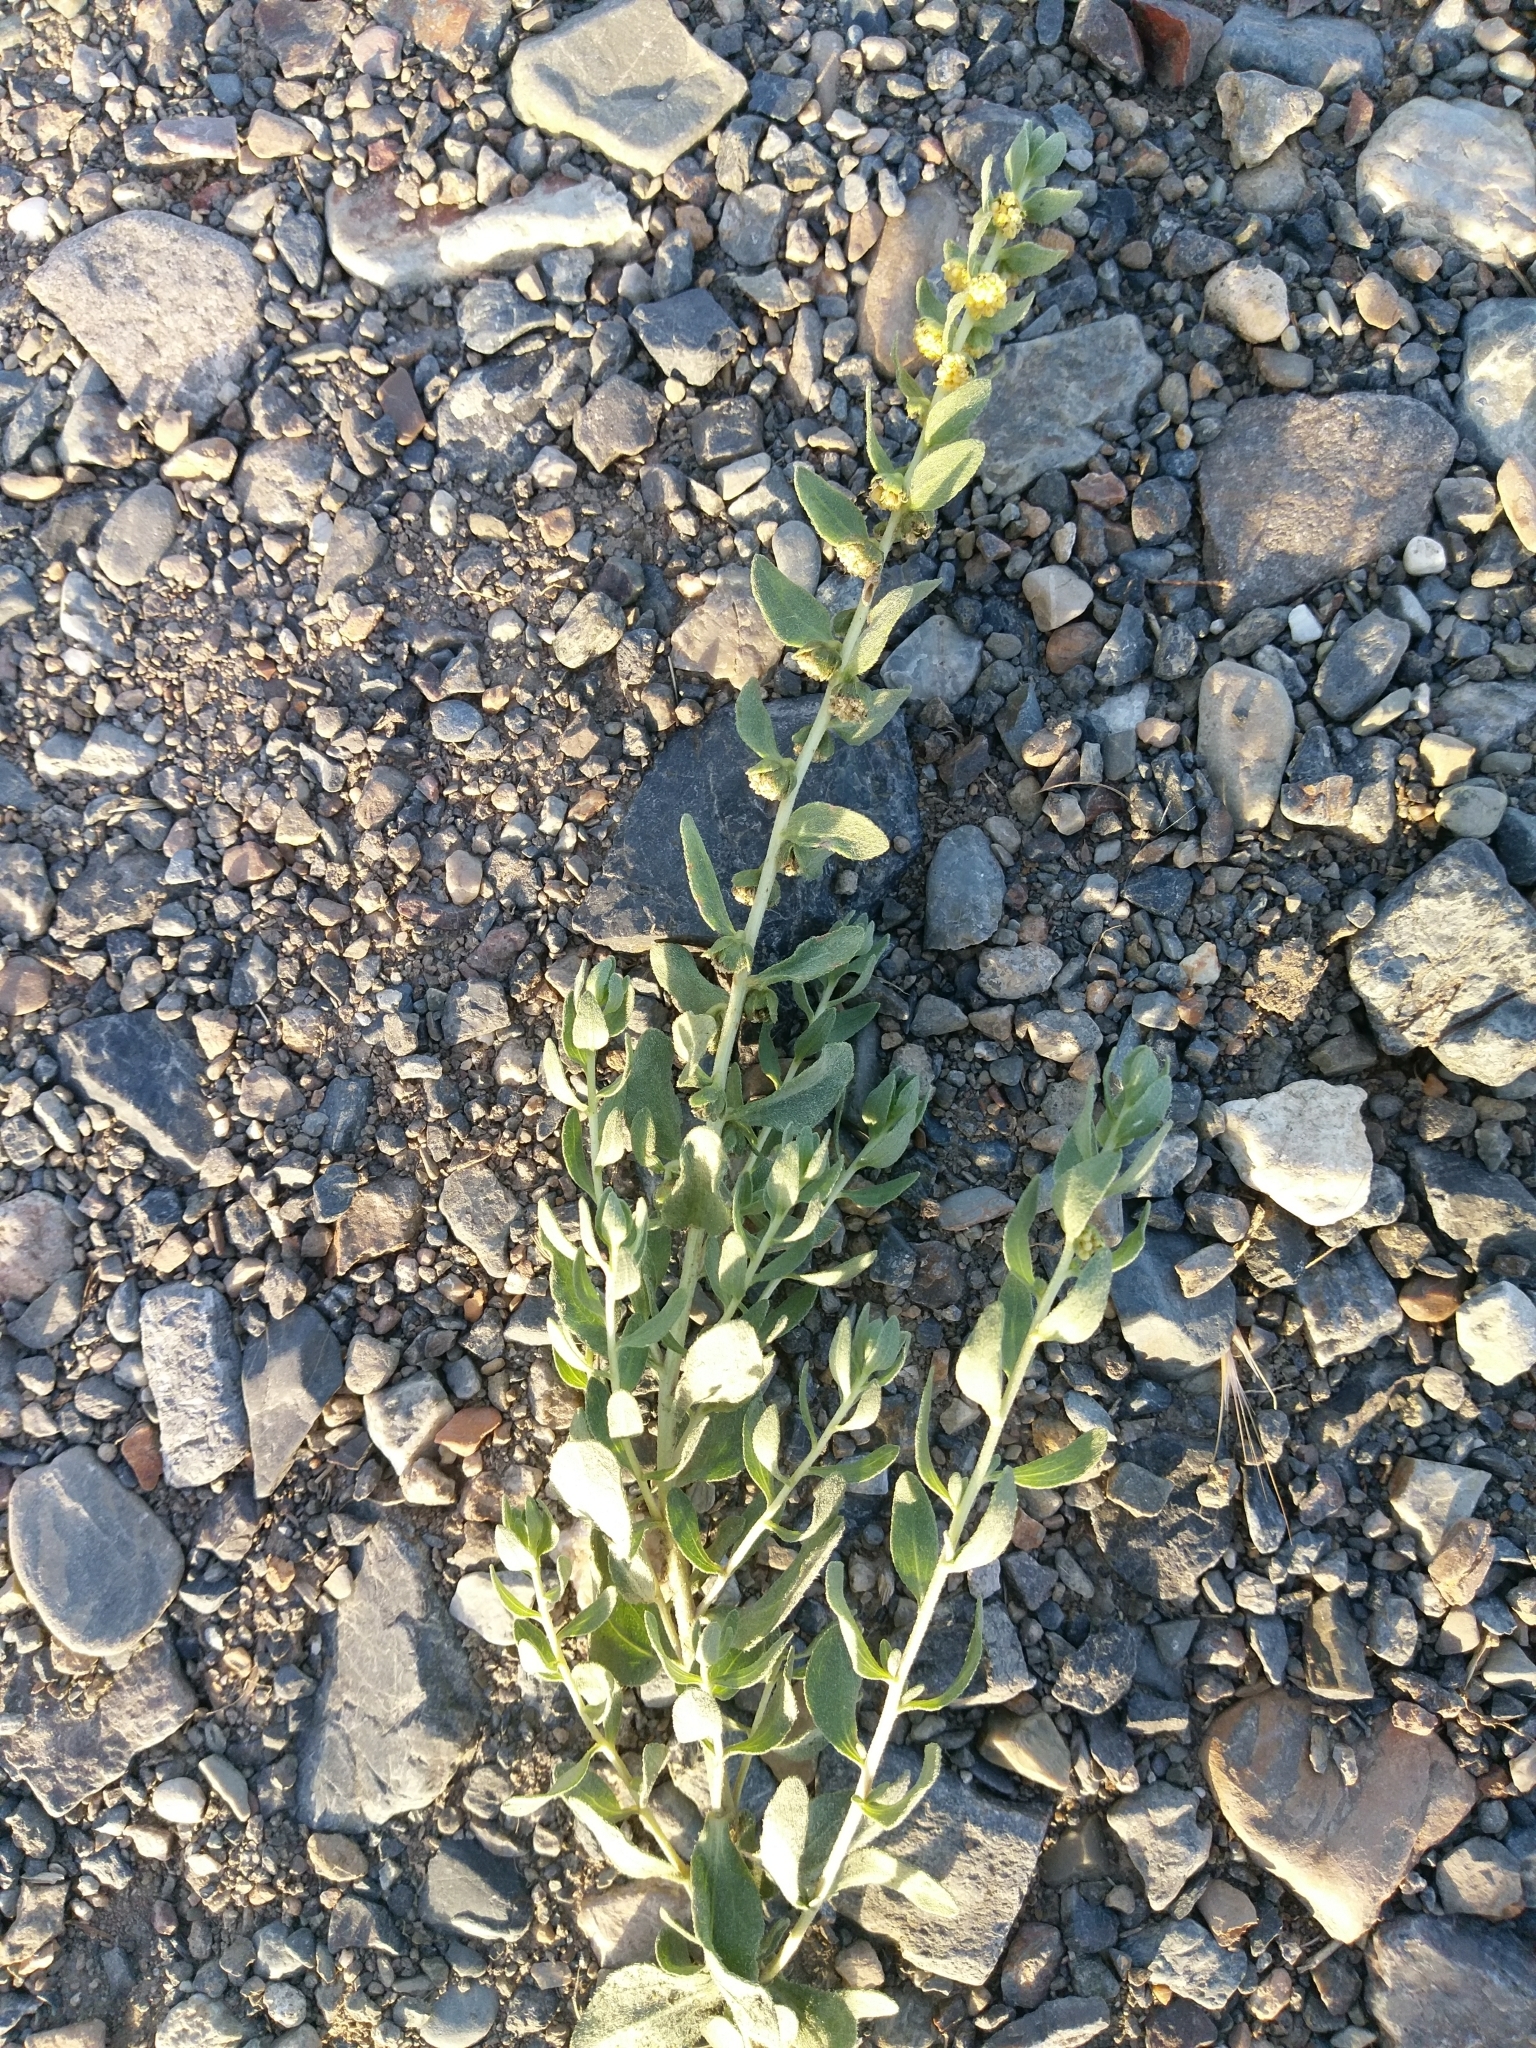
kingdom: Plantae
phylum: Tracheophyta
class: Magnoliopsida
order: Asterales
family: Asteraceae
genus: Iva
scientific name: Iva axillaris
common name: Poverty sumpweed
